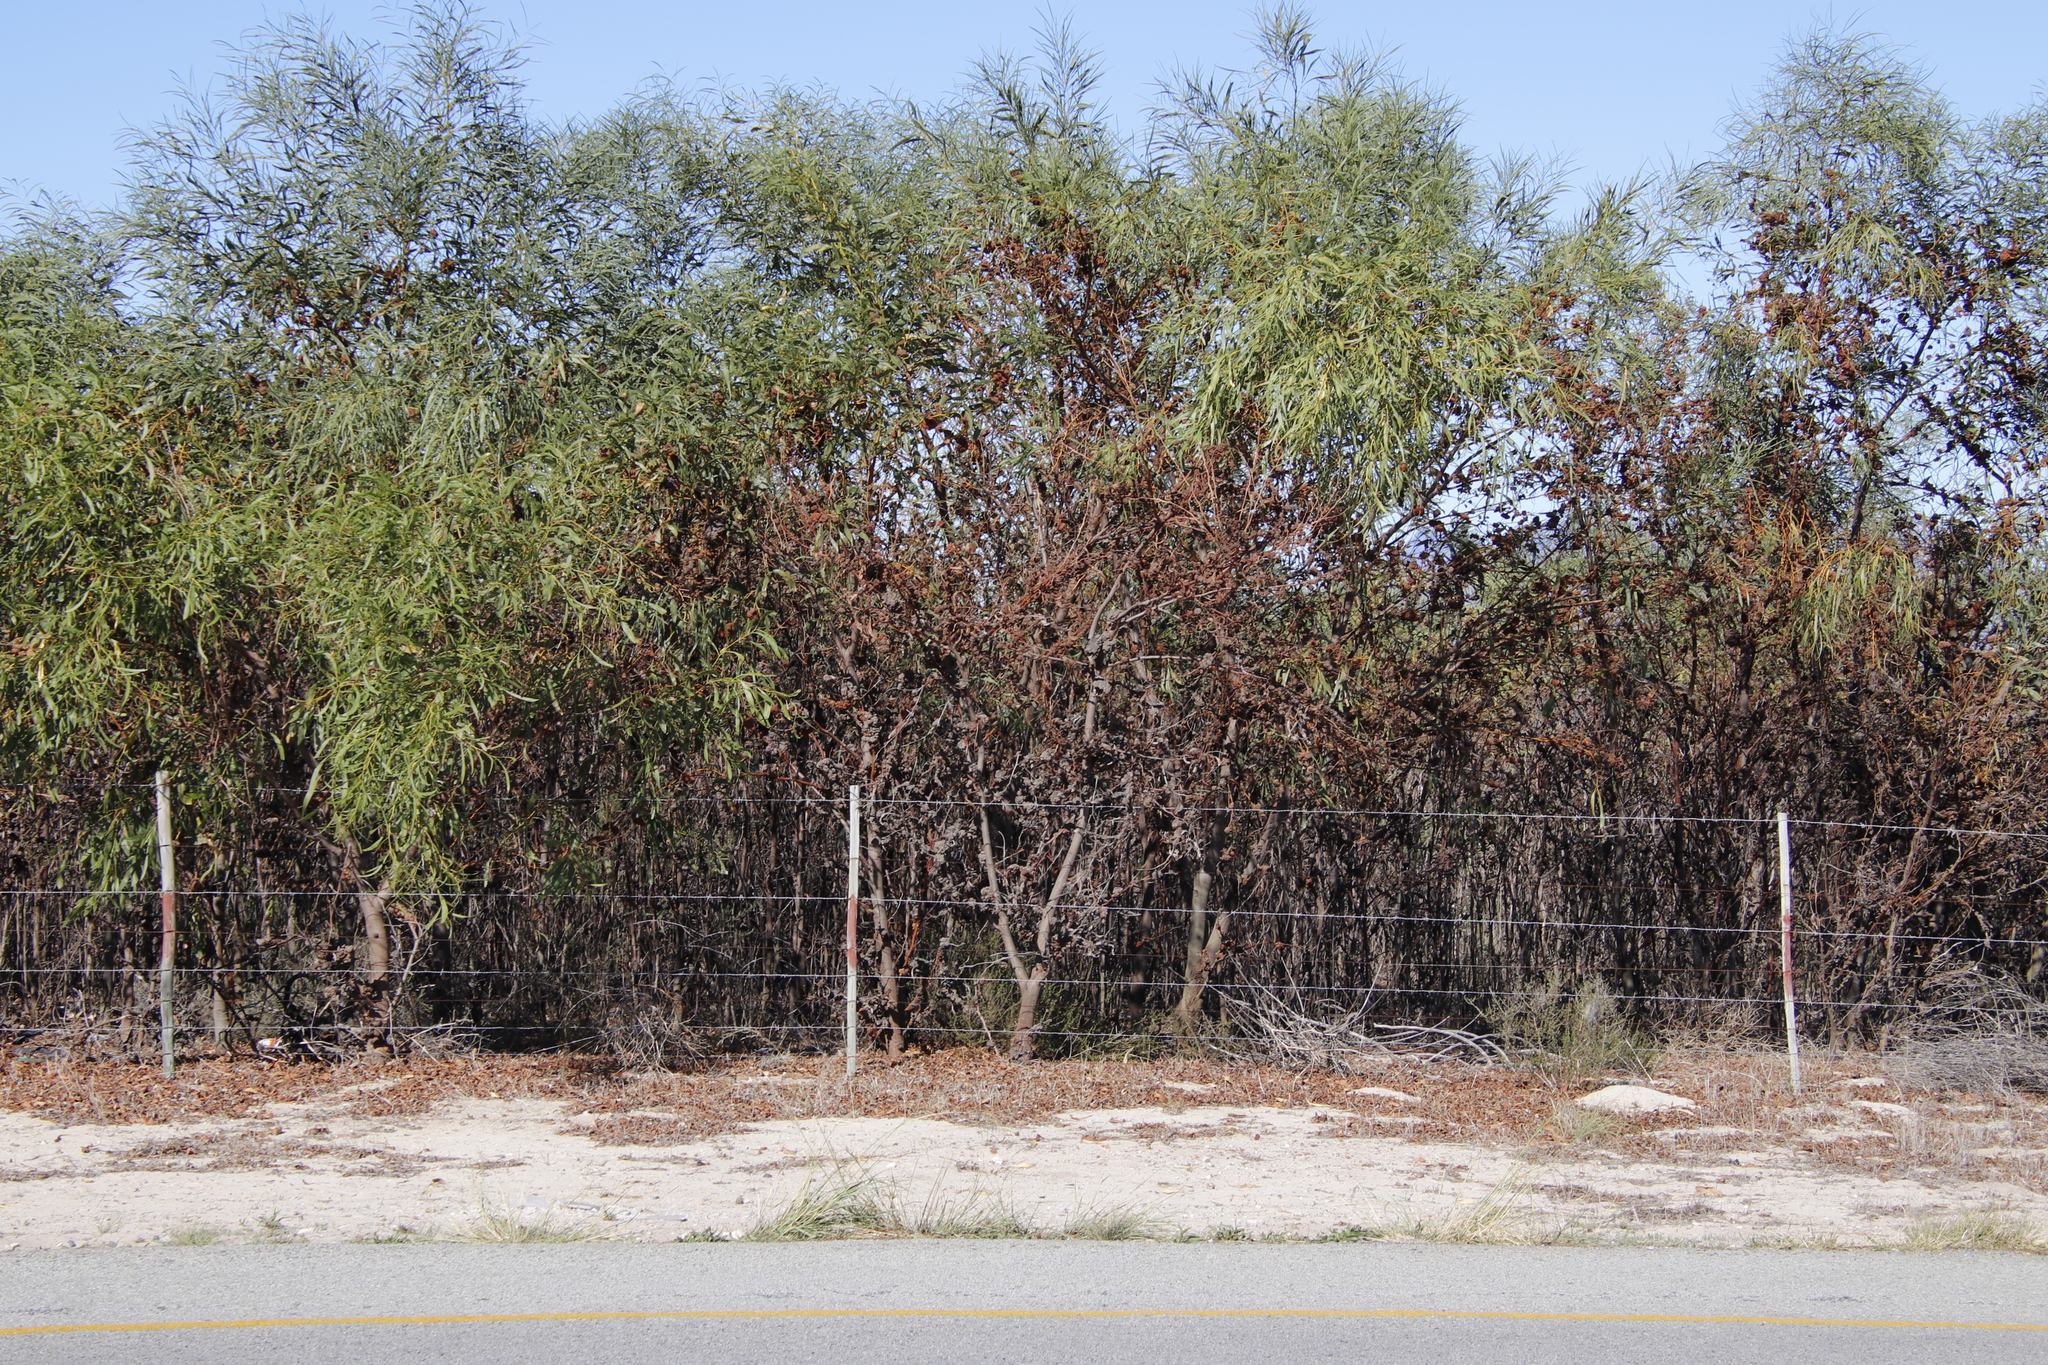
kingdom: Plantae
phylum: Tracheophyta
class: Magnoliopsida
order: Fabales
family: Fabaceae
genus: Acacia
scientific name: Acacia saligna
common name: Orange wattle
